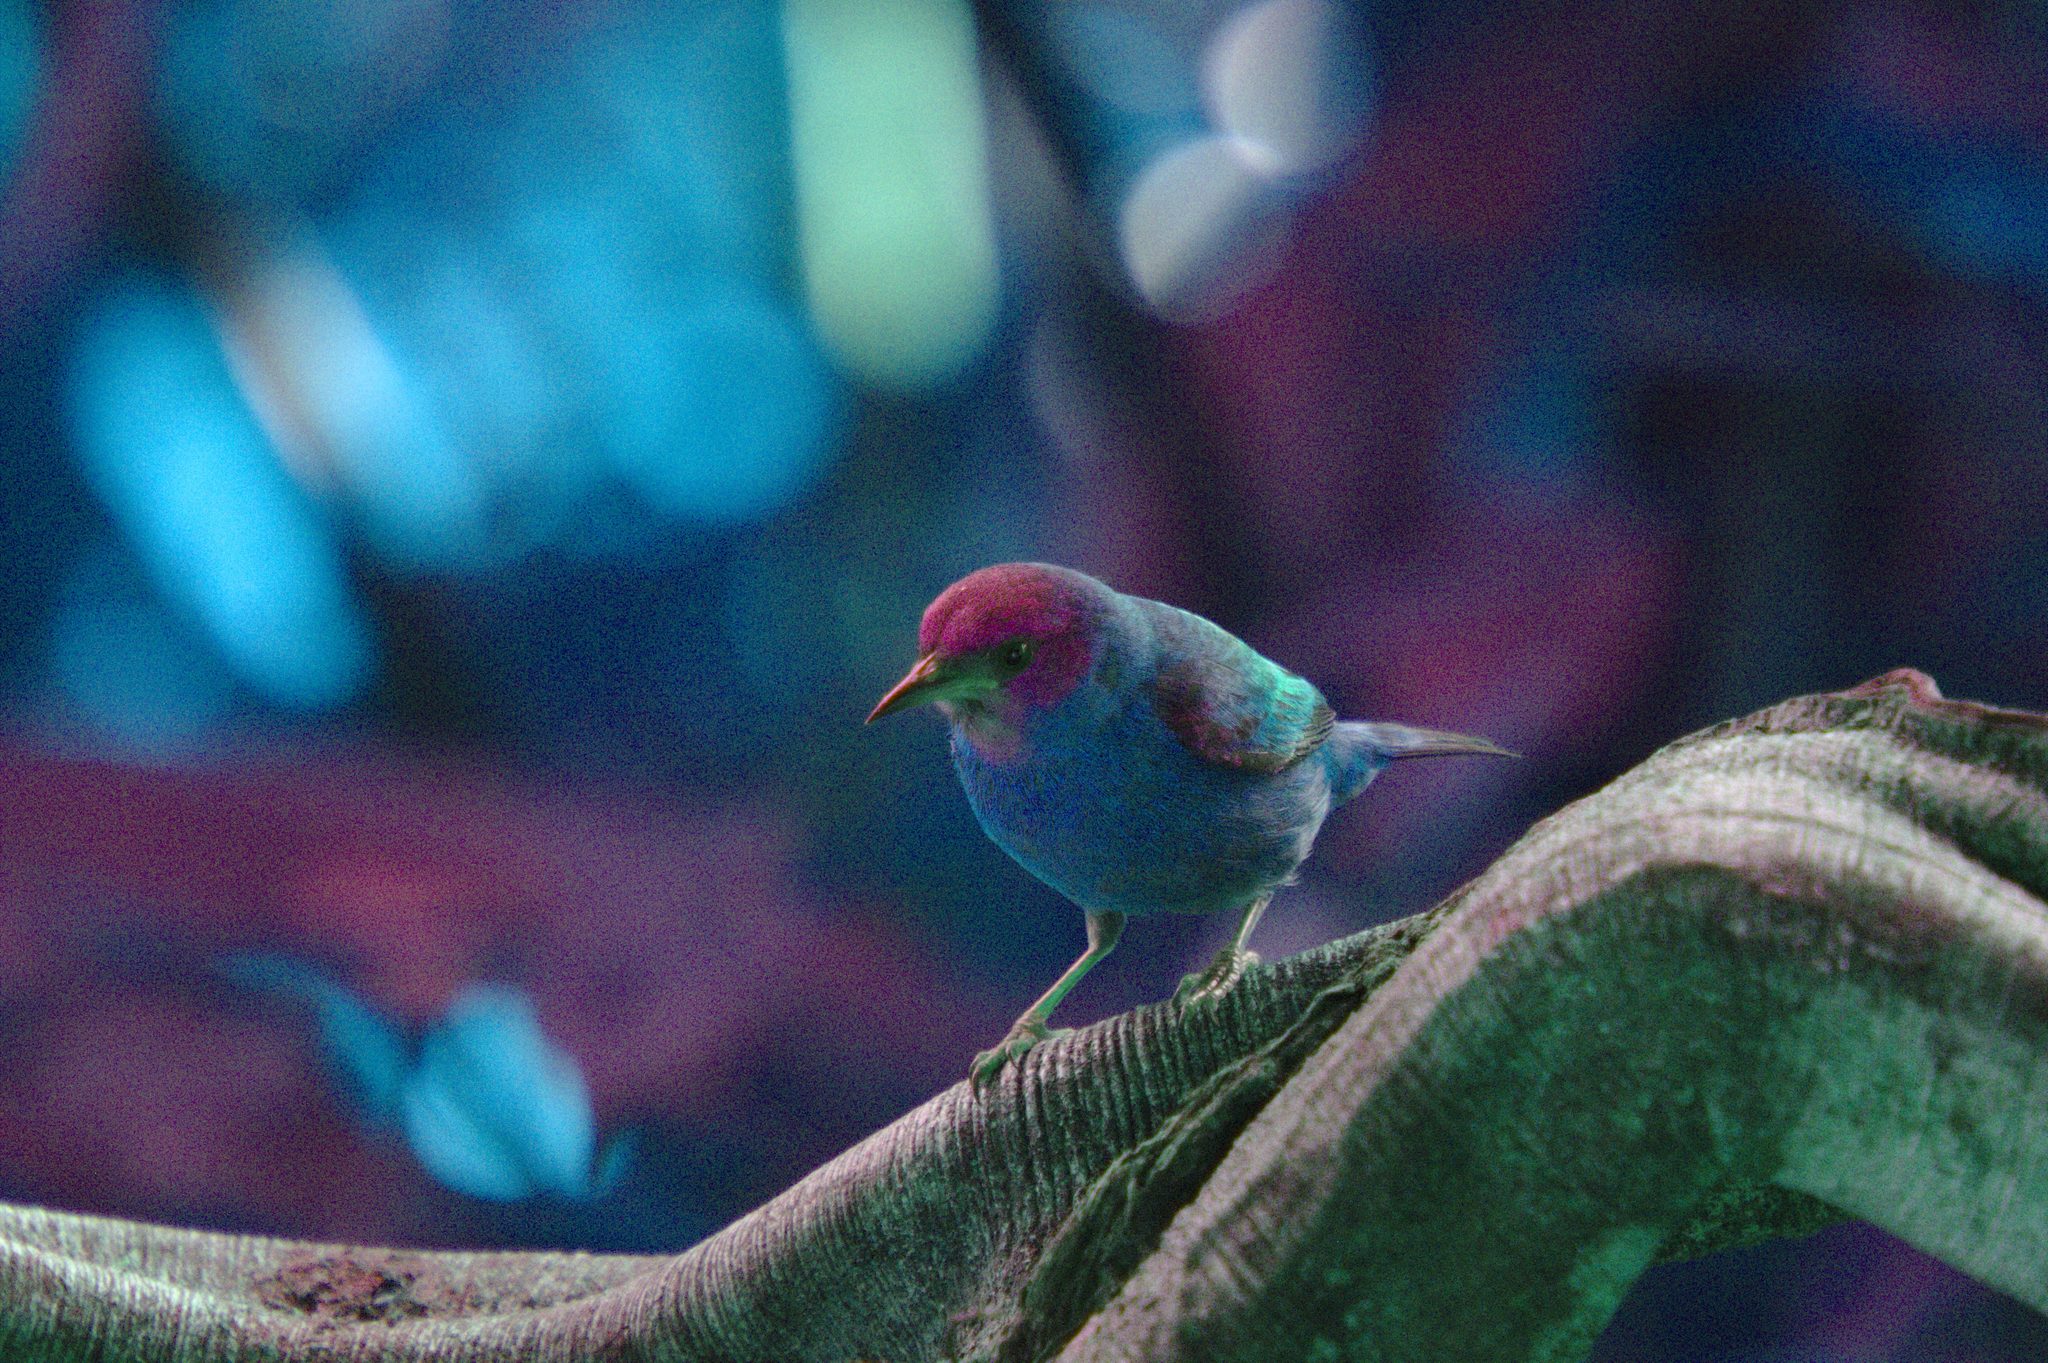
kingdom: Animalia
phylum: Chordata
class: Aves
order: Passeriformes
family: Thraupidae
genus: Dacnis
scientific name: Dacnis cayana
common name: Blue dacnis
